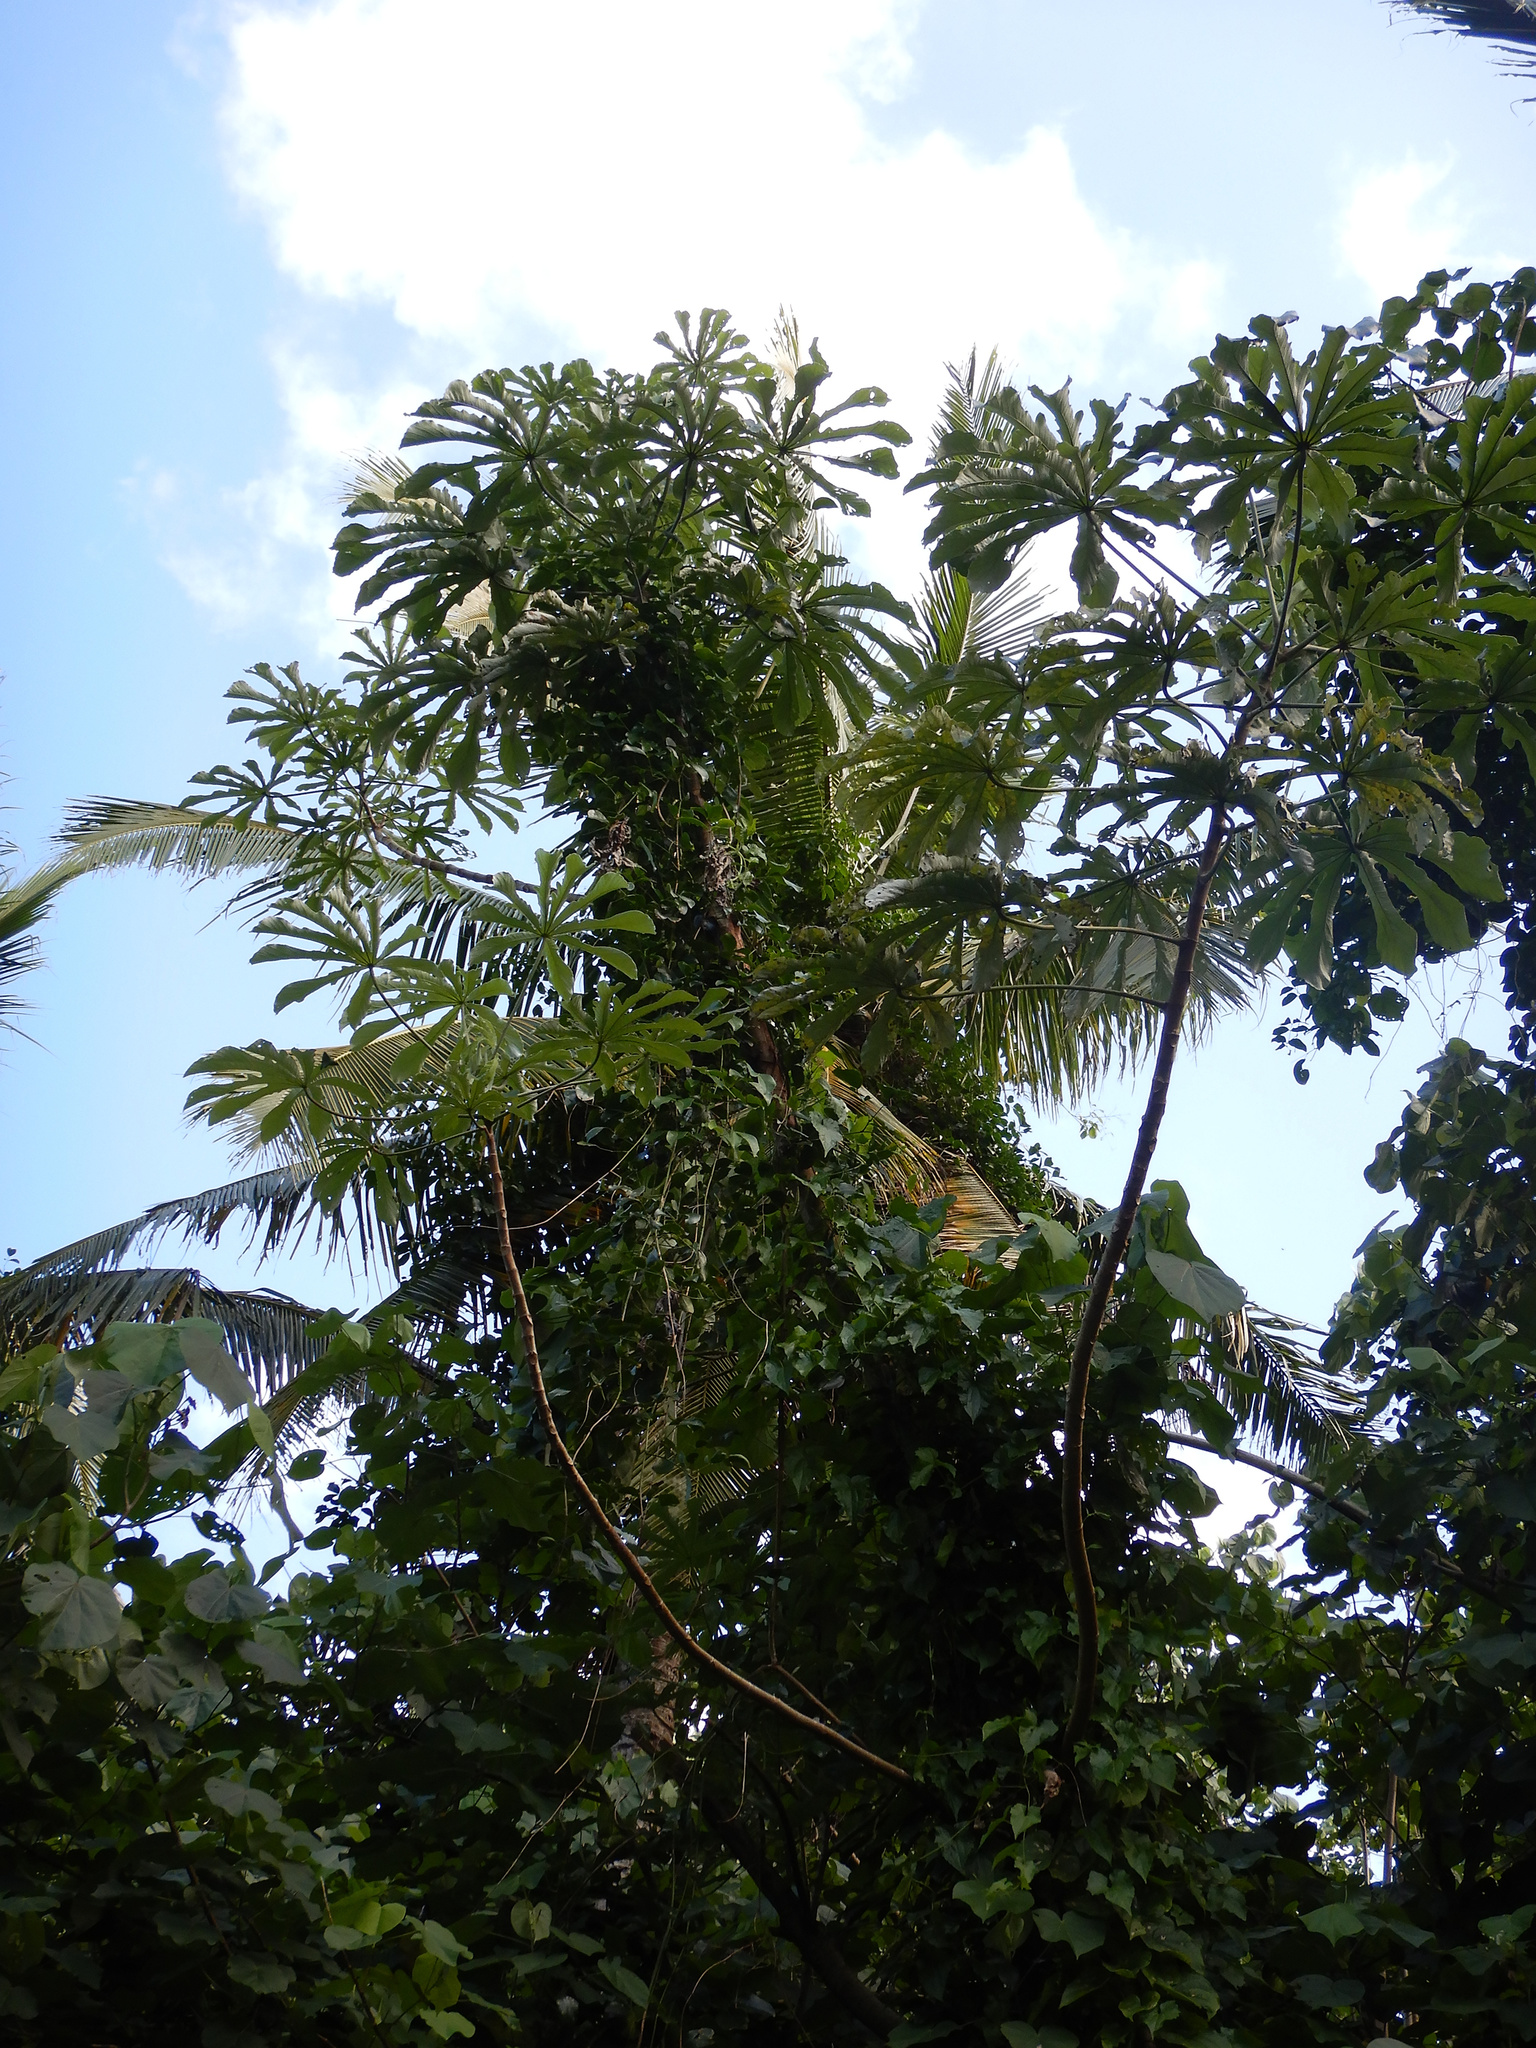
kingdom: Plantae
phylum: Tracheophyta
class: Magnoliopsida
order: Rosales
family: Urticaceae
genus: Cecropia
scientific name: Cecropia pachystachya
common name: Ambay pumpwood
